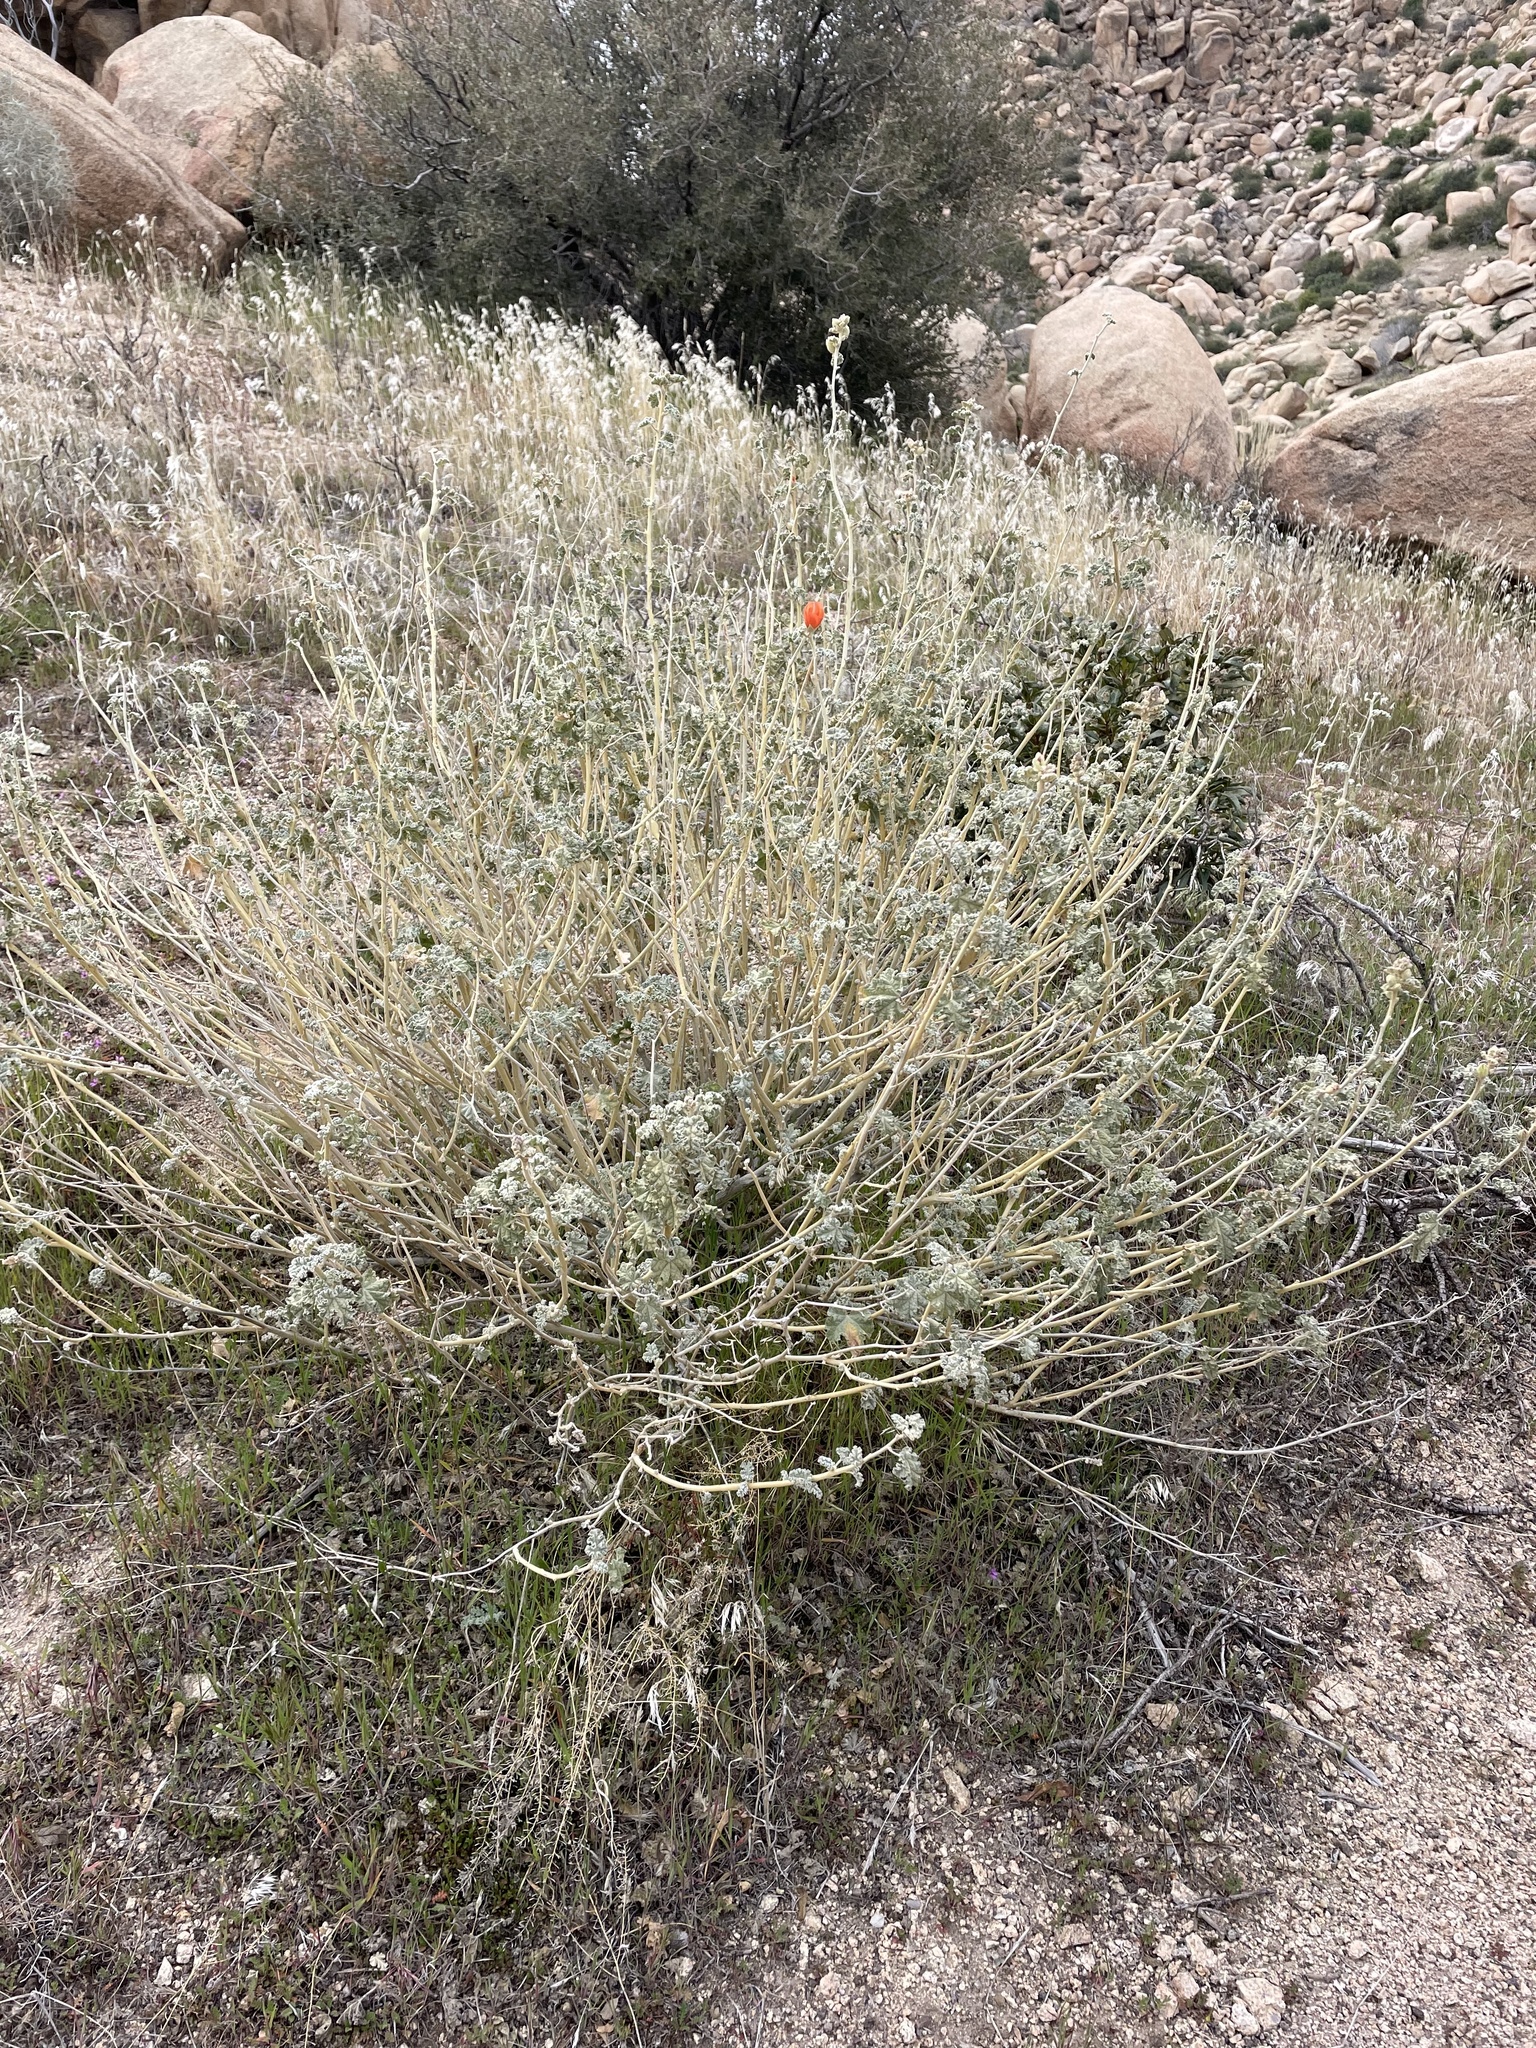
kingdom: Plantae
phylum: Tracheophyta
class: Magnoliopsida
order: Malvales
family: Malvaceae
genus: Sphaeralcea
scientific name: Sphaeralcea ambigua
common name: Apricot globe-mallow
